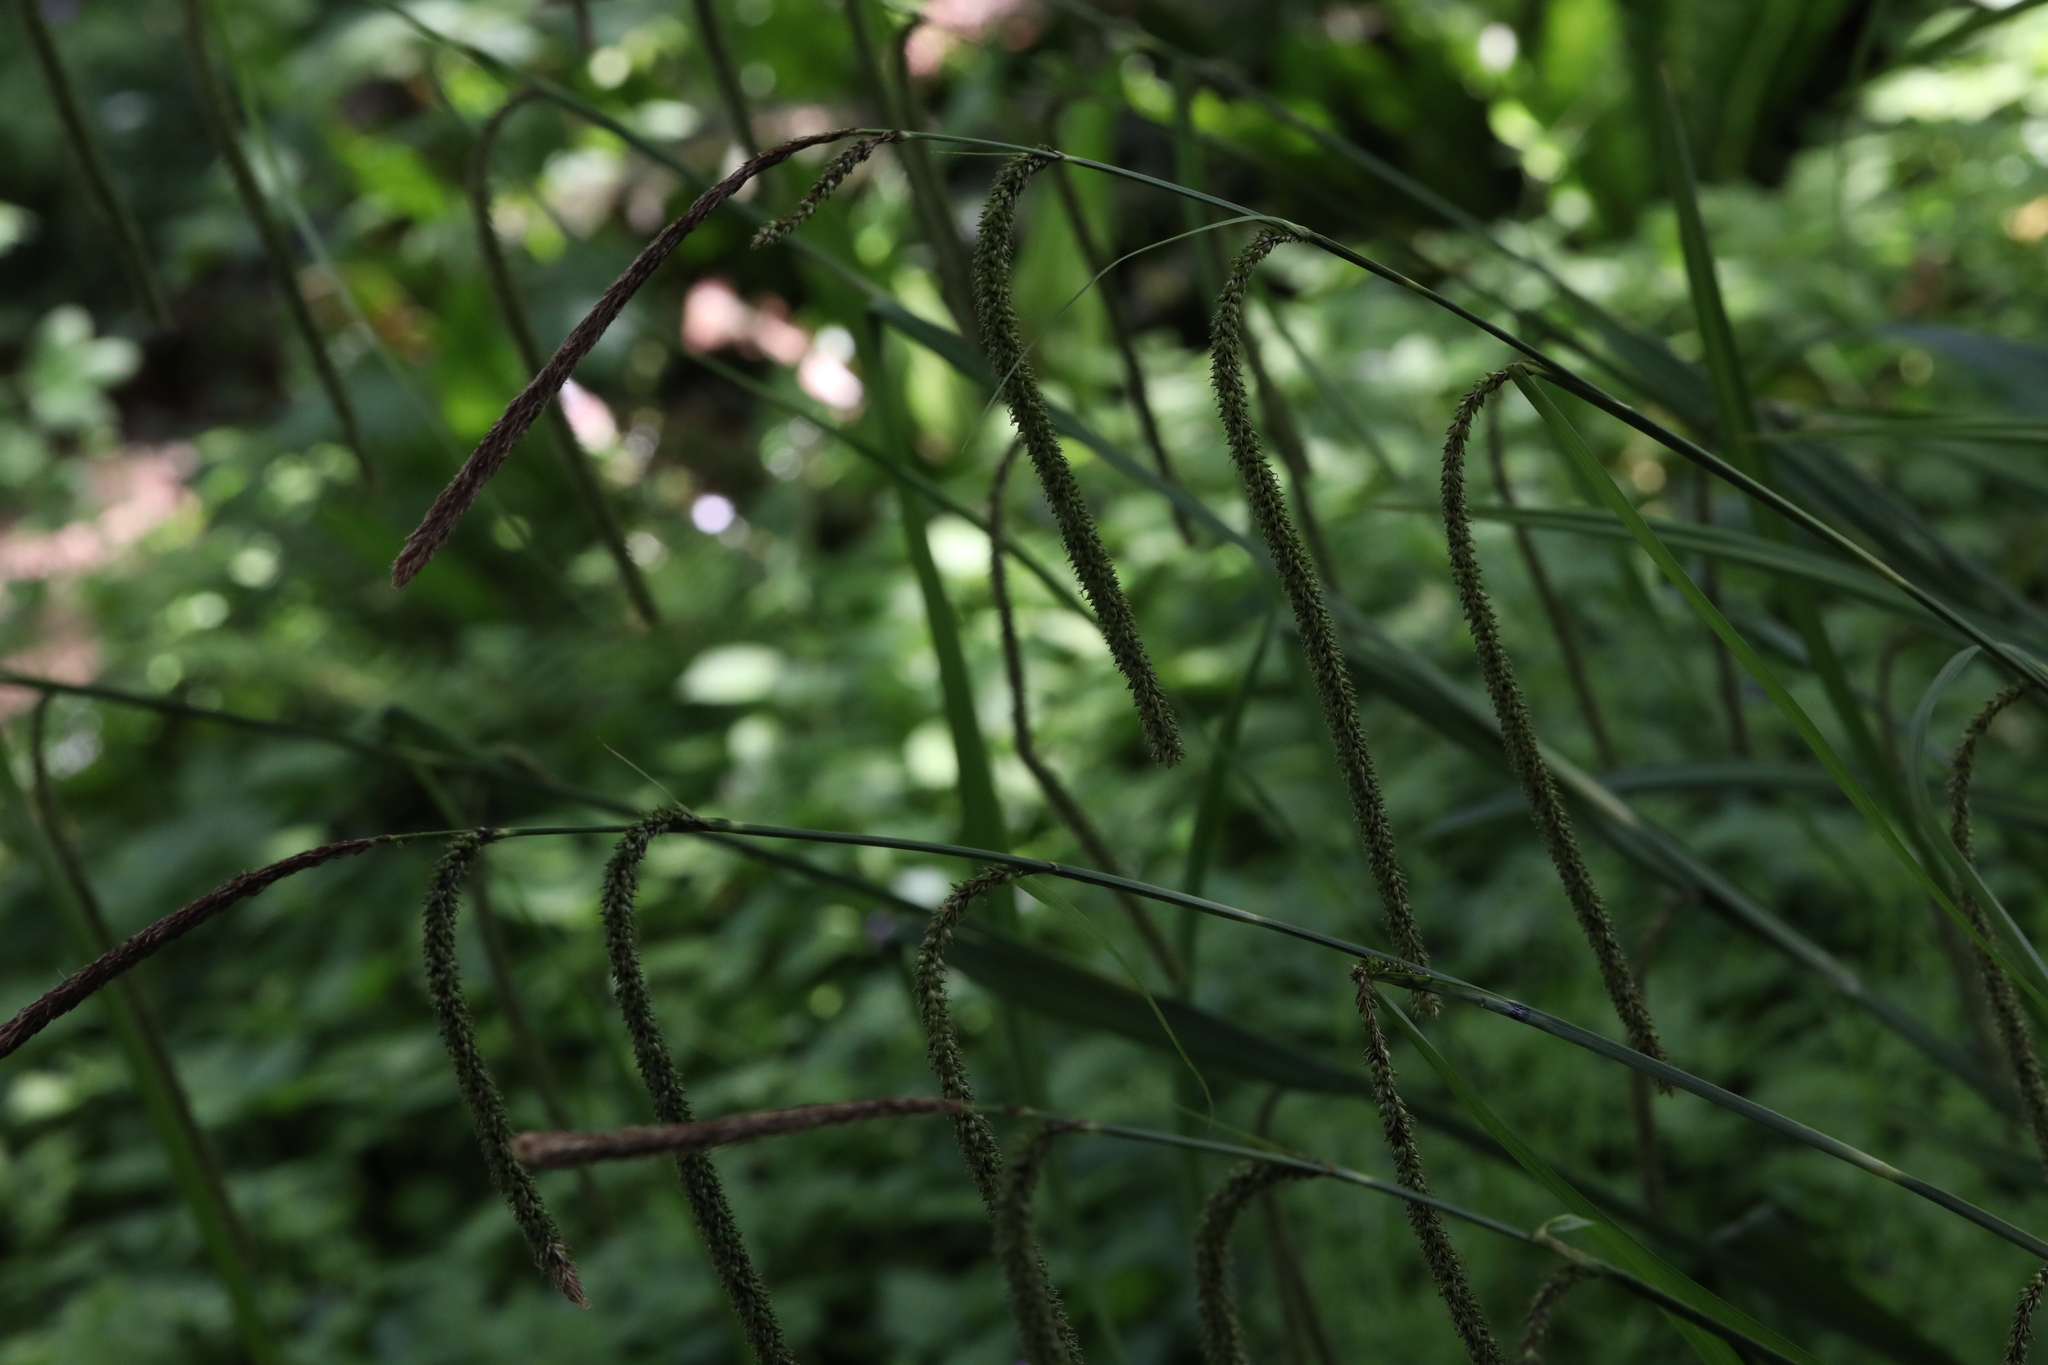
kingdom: Plantae
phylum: Tracheophyta
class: Liliopsida
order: Poales
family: Cyperaceae
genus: Carex
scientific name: Carex pendula
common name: Pendulous sedge
